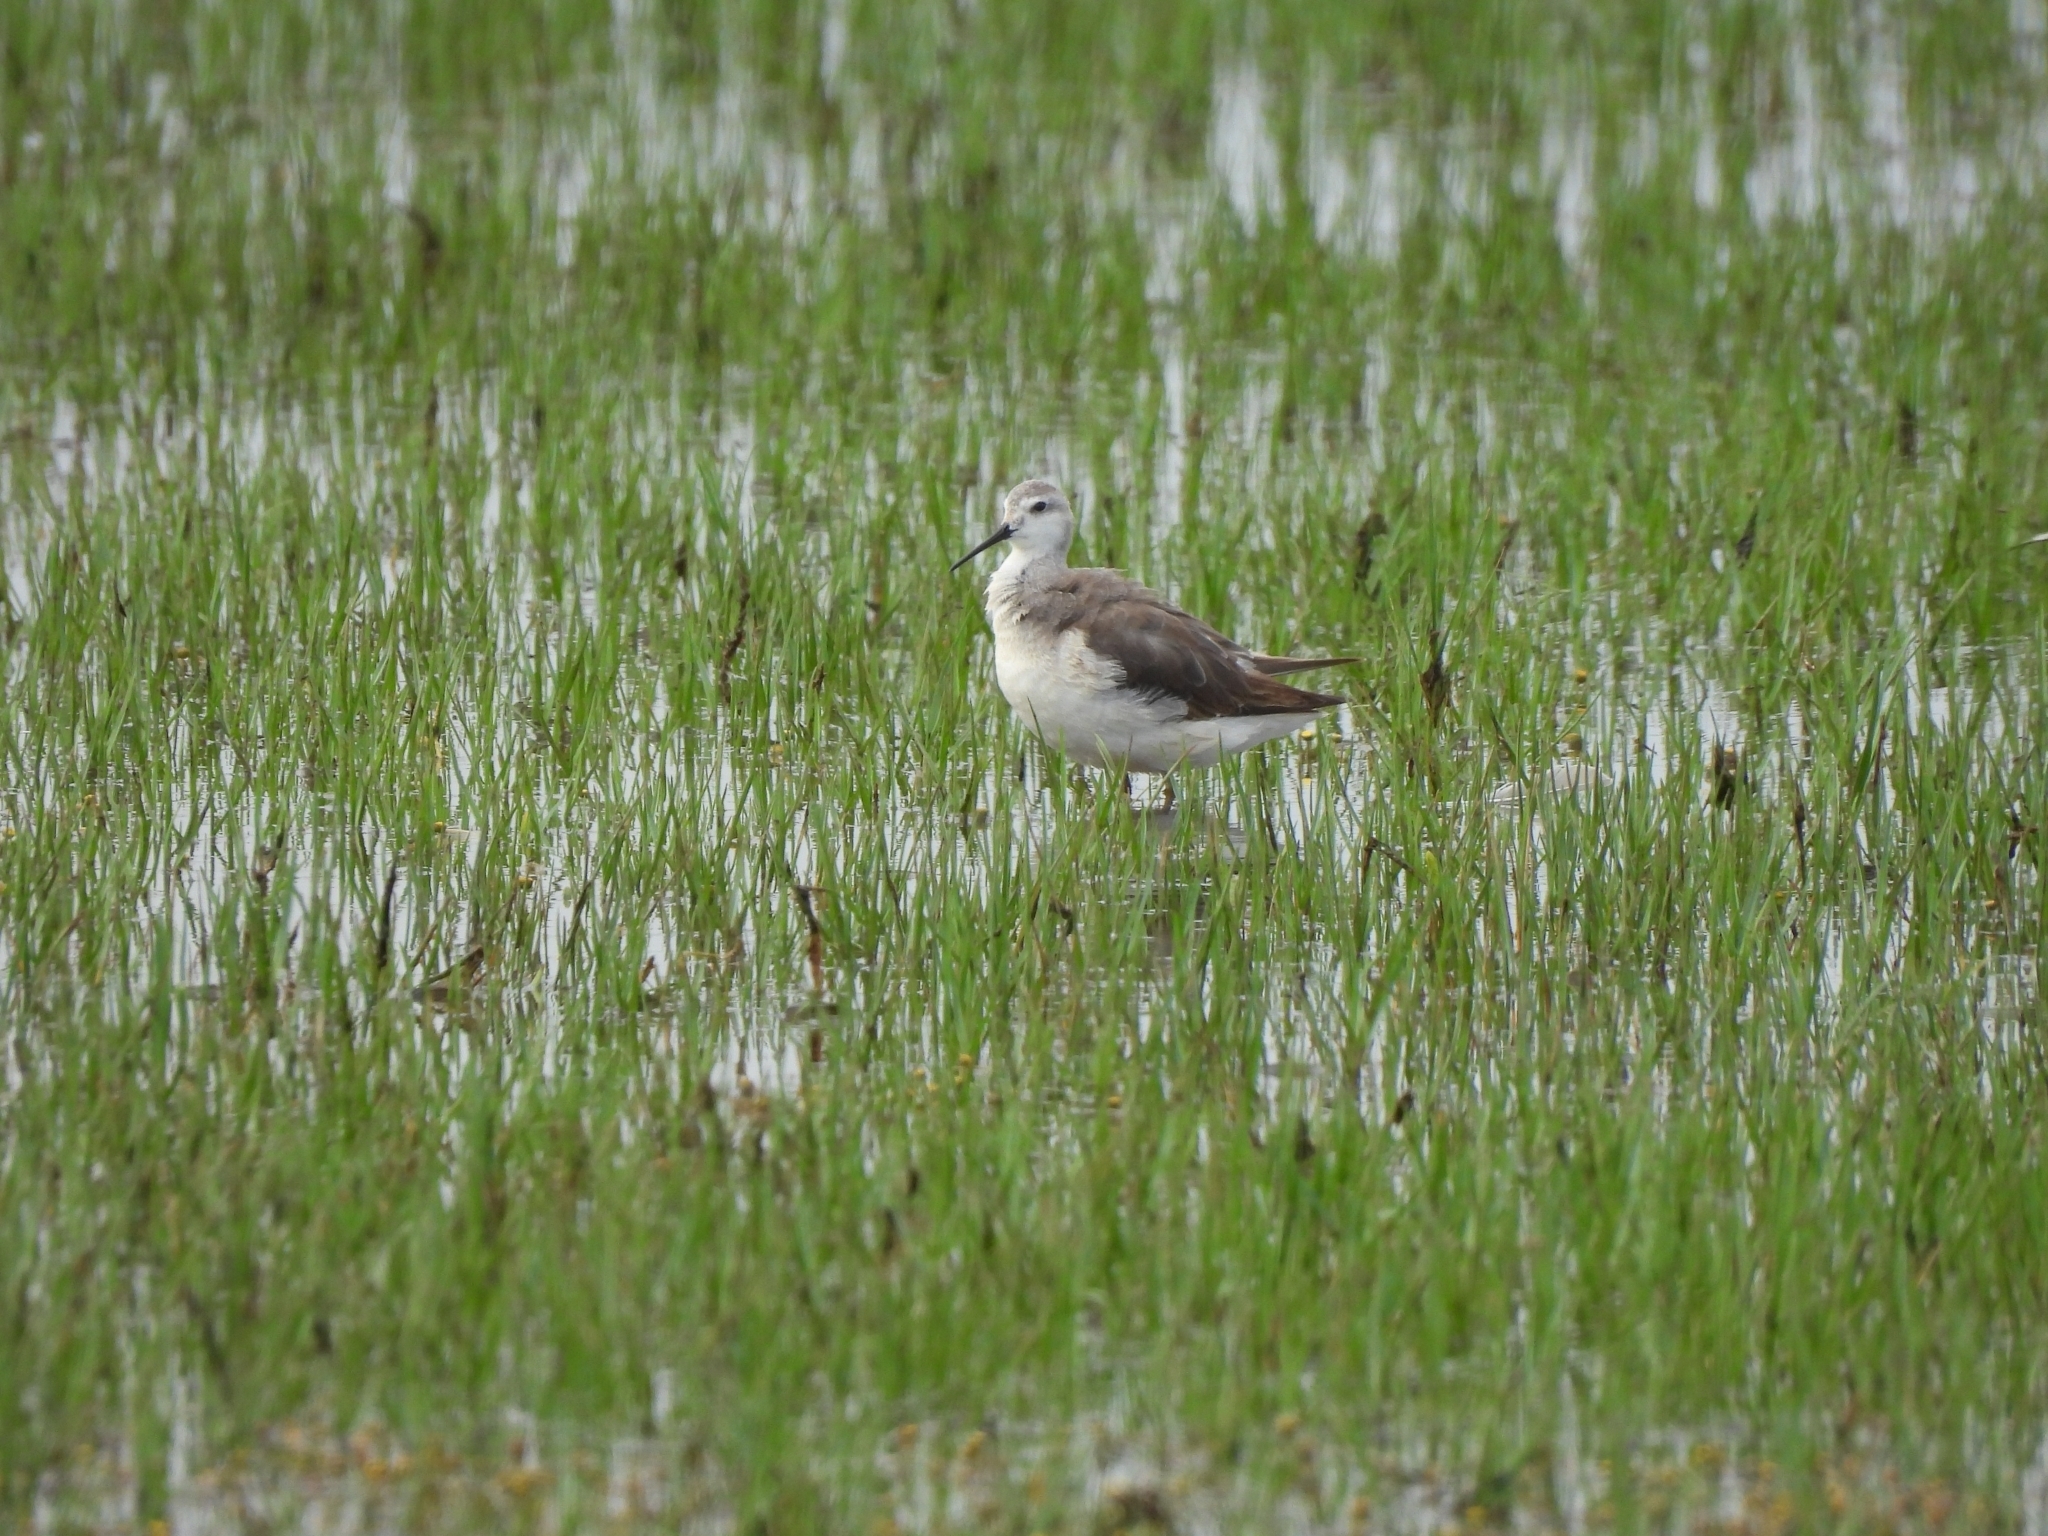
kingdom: Animalia
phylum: Chordata
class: Aves
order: Charadriiformes
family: Scolopacidae
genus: Phalaropus
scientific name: Phalaropus tricolor
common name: Wilson's phalarope
